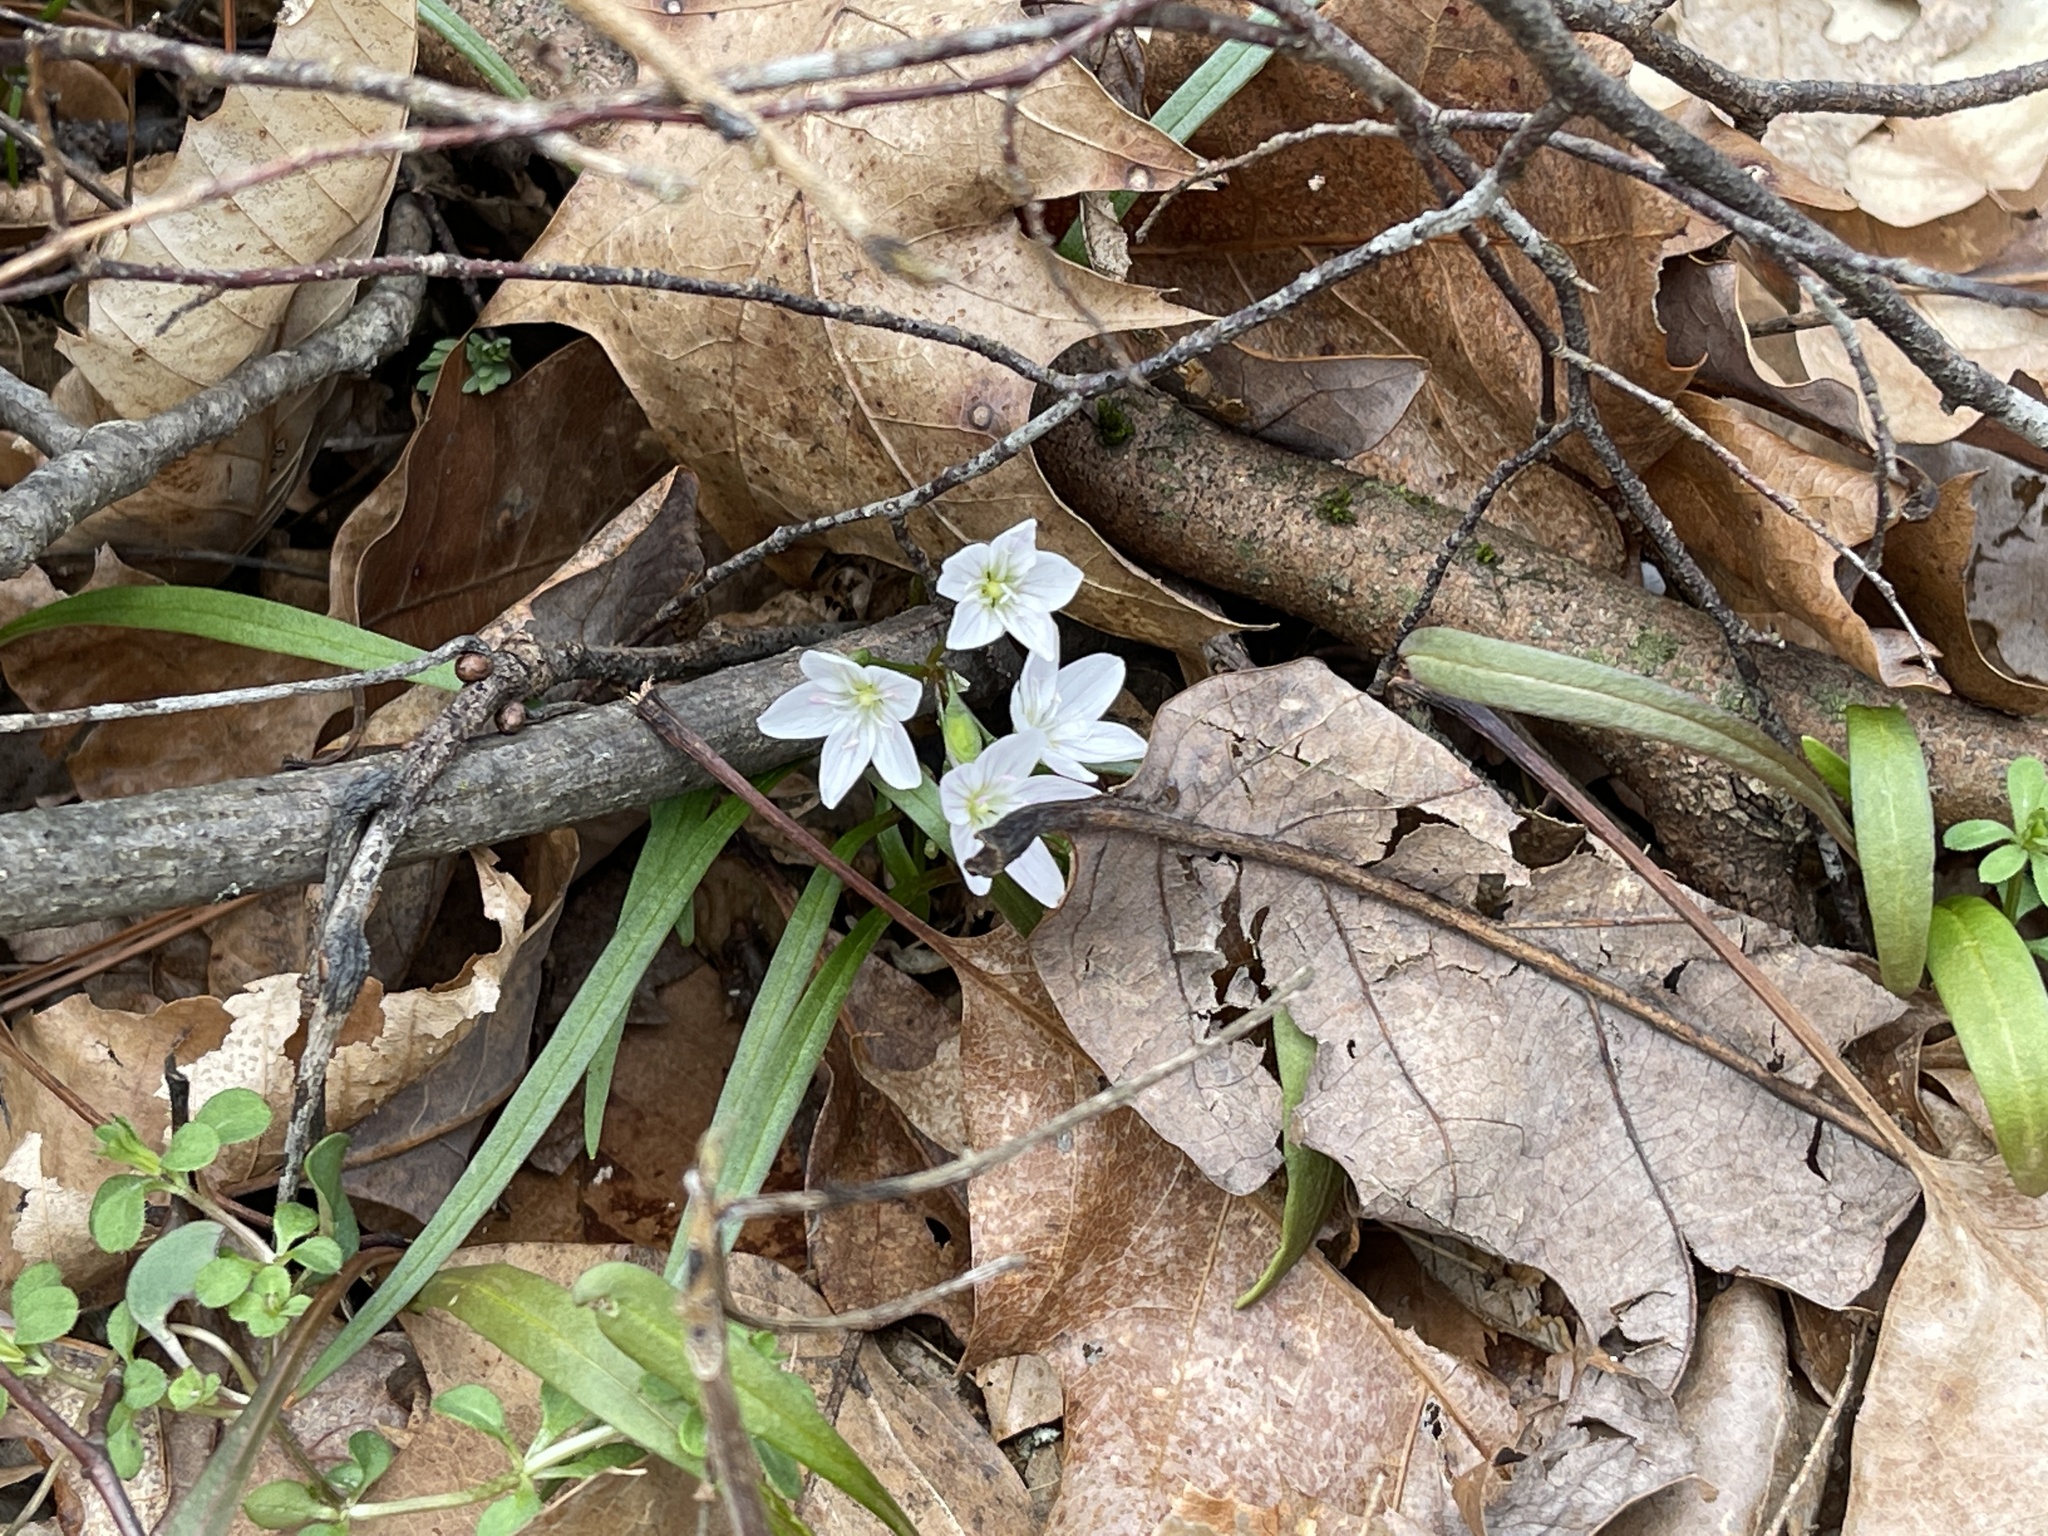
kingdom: Plantae
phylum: Tracheophyta
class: Magnoliopsida
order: Caryophyllales
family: Montiaceae
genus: Claytonia
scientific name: Claytonia virginica
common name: Virginia springbeauty
